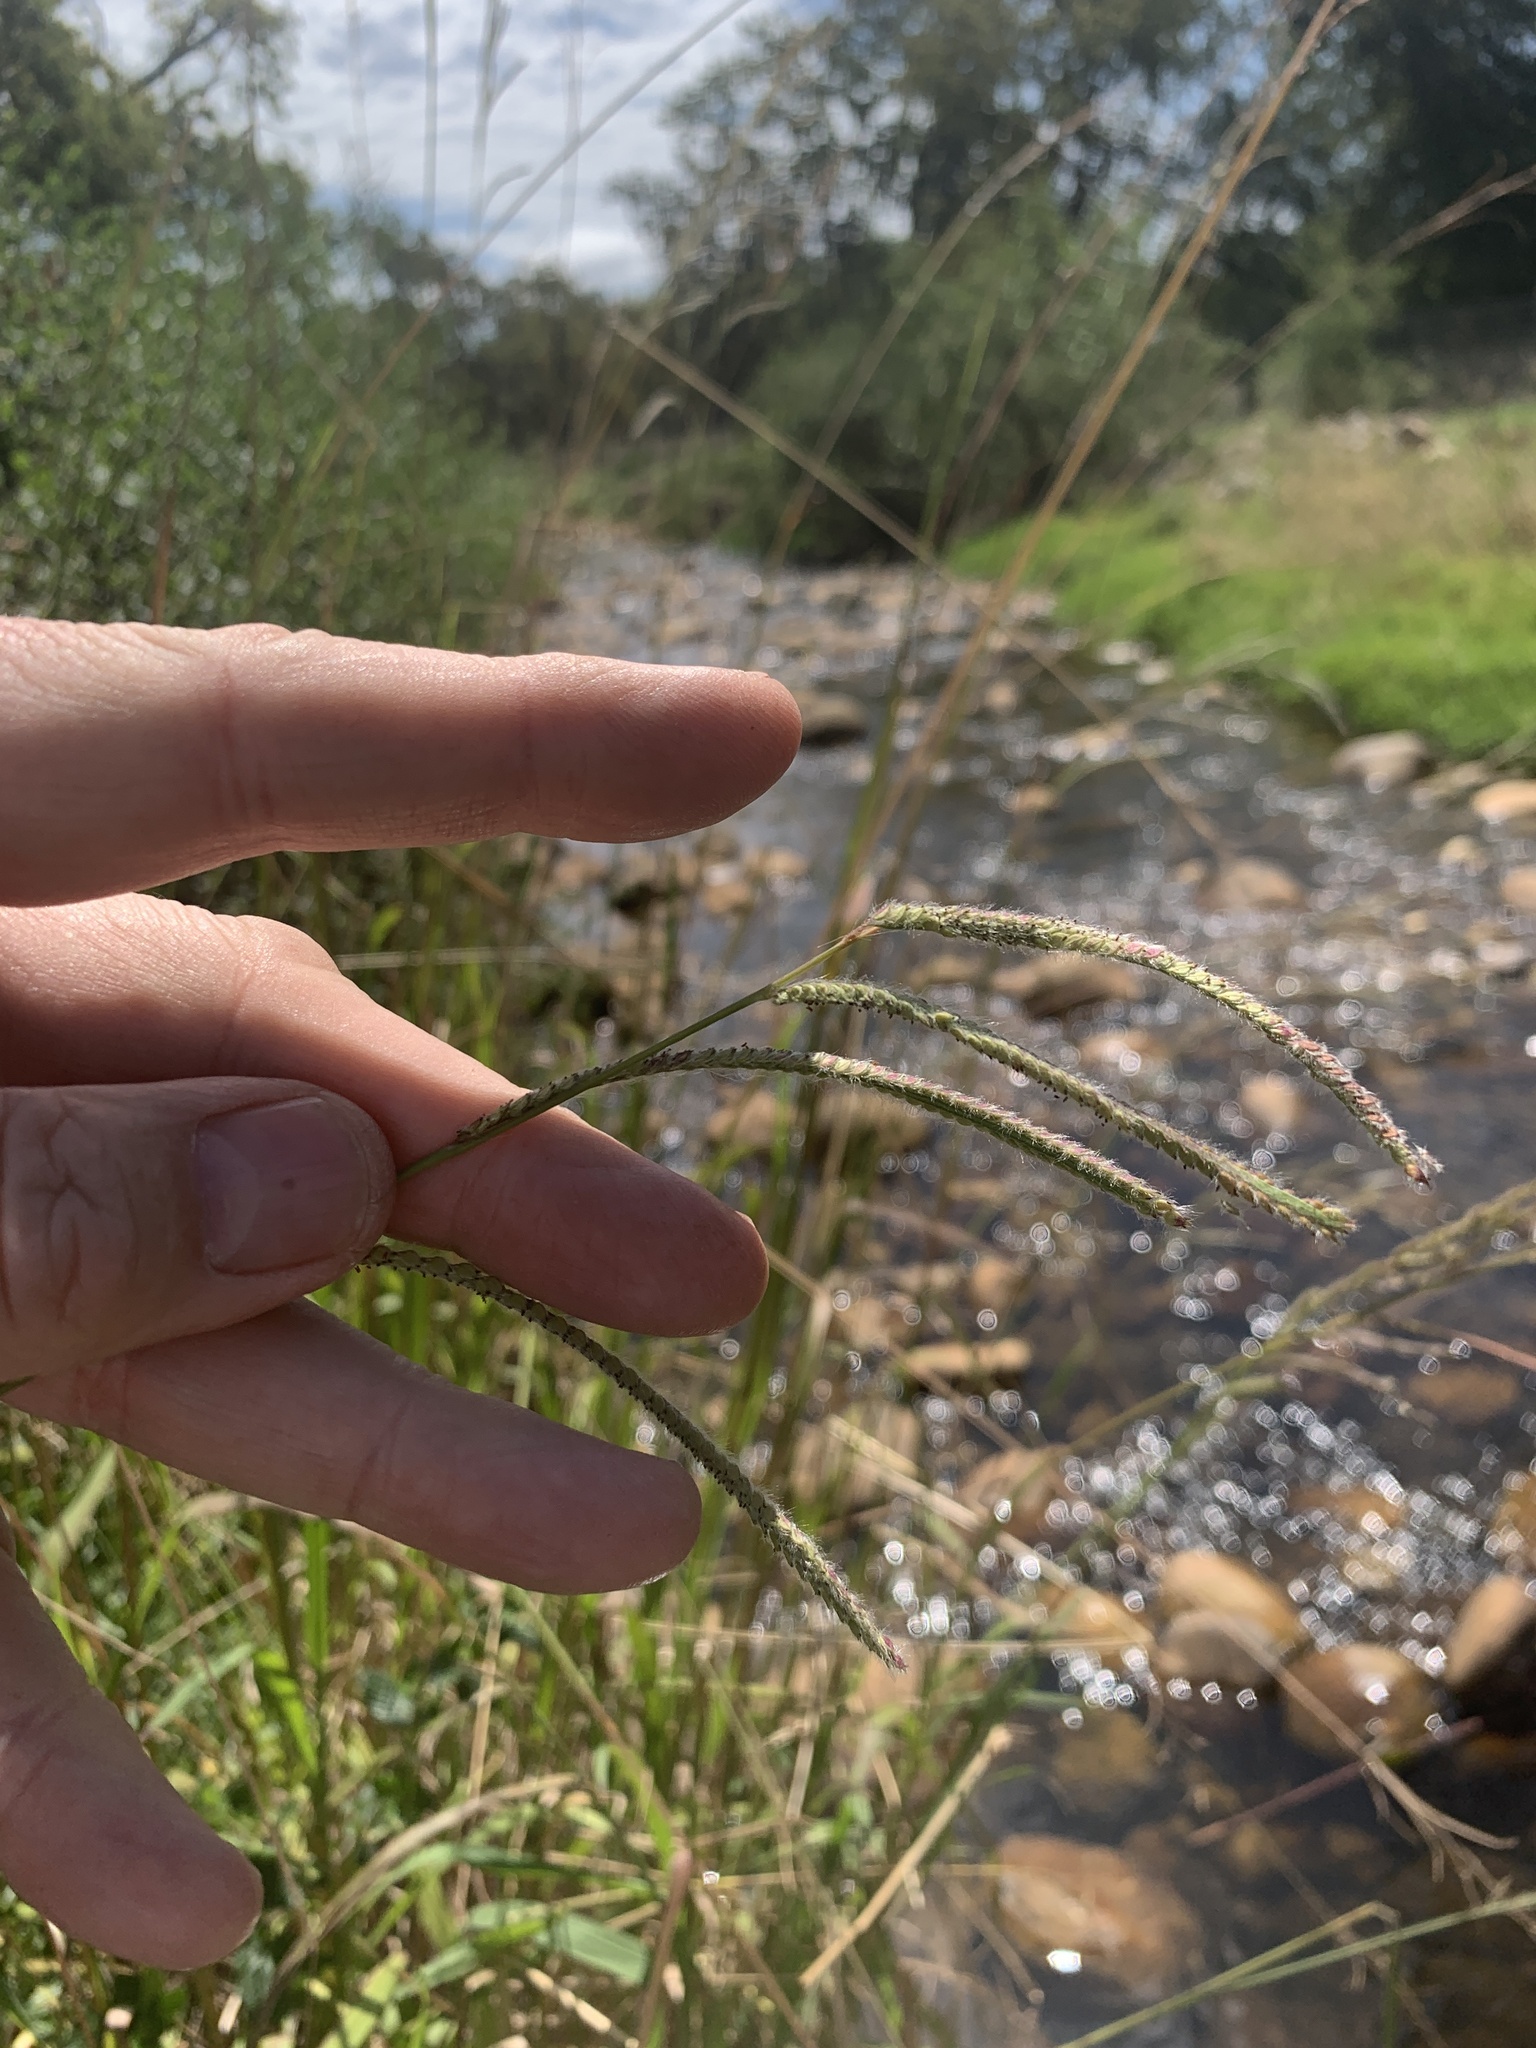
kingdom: Plantae
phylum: Tracheophyta
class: Liliopsida
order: Poales
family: Poaceae
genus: Paspalum
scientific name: Paspalum urvillei
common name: Vasey's grass
